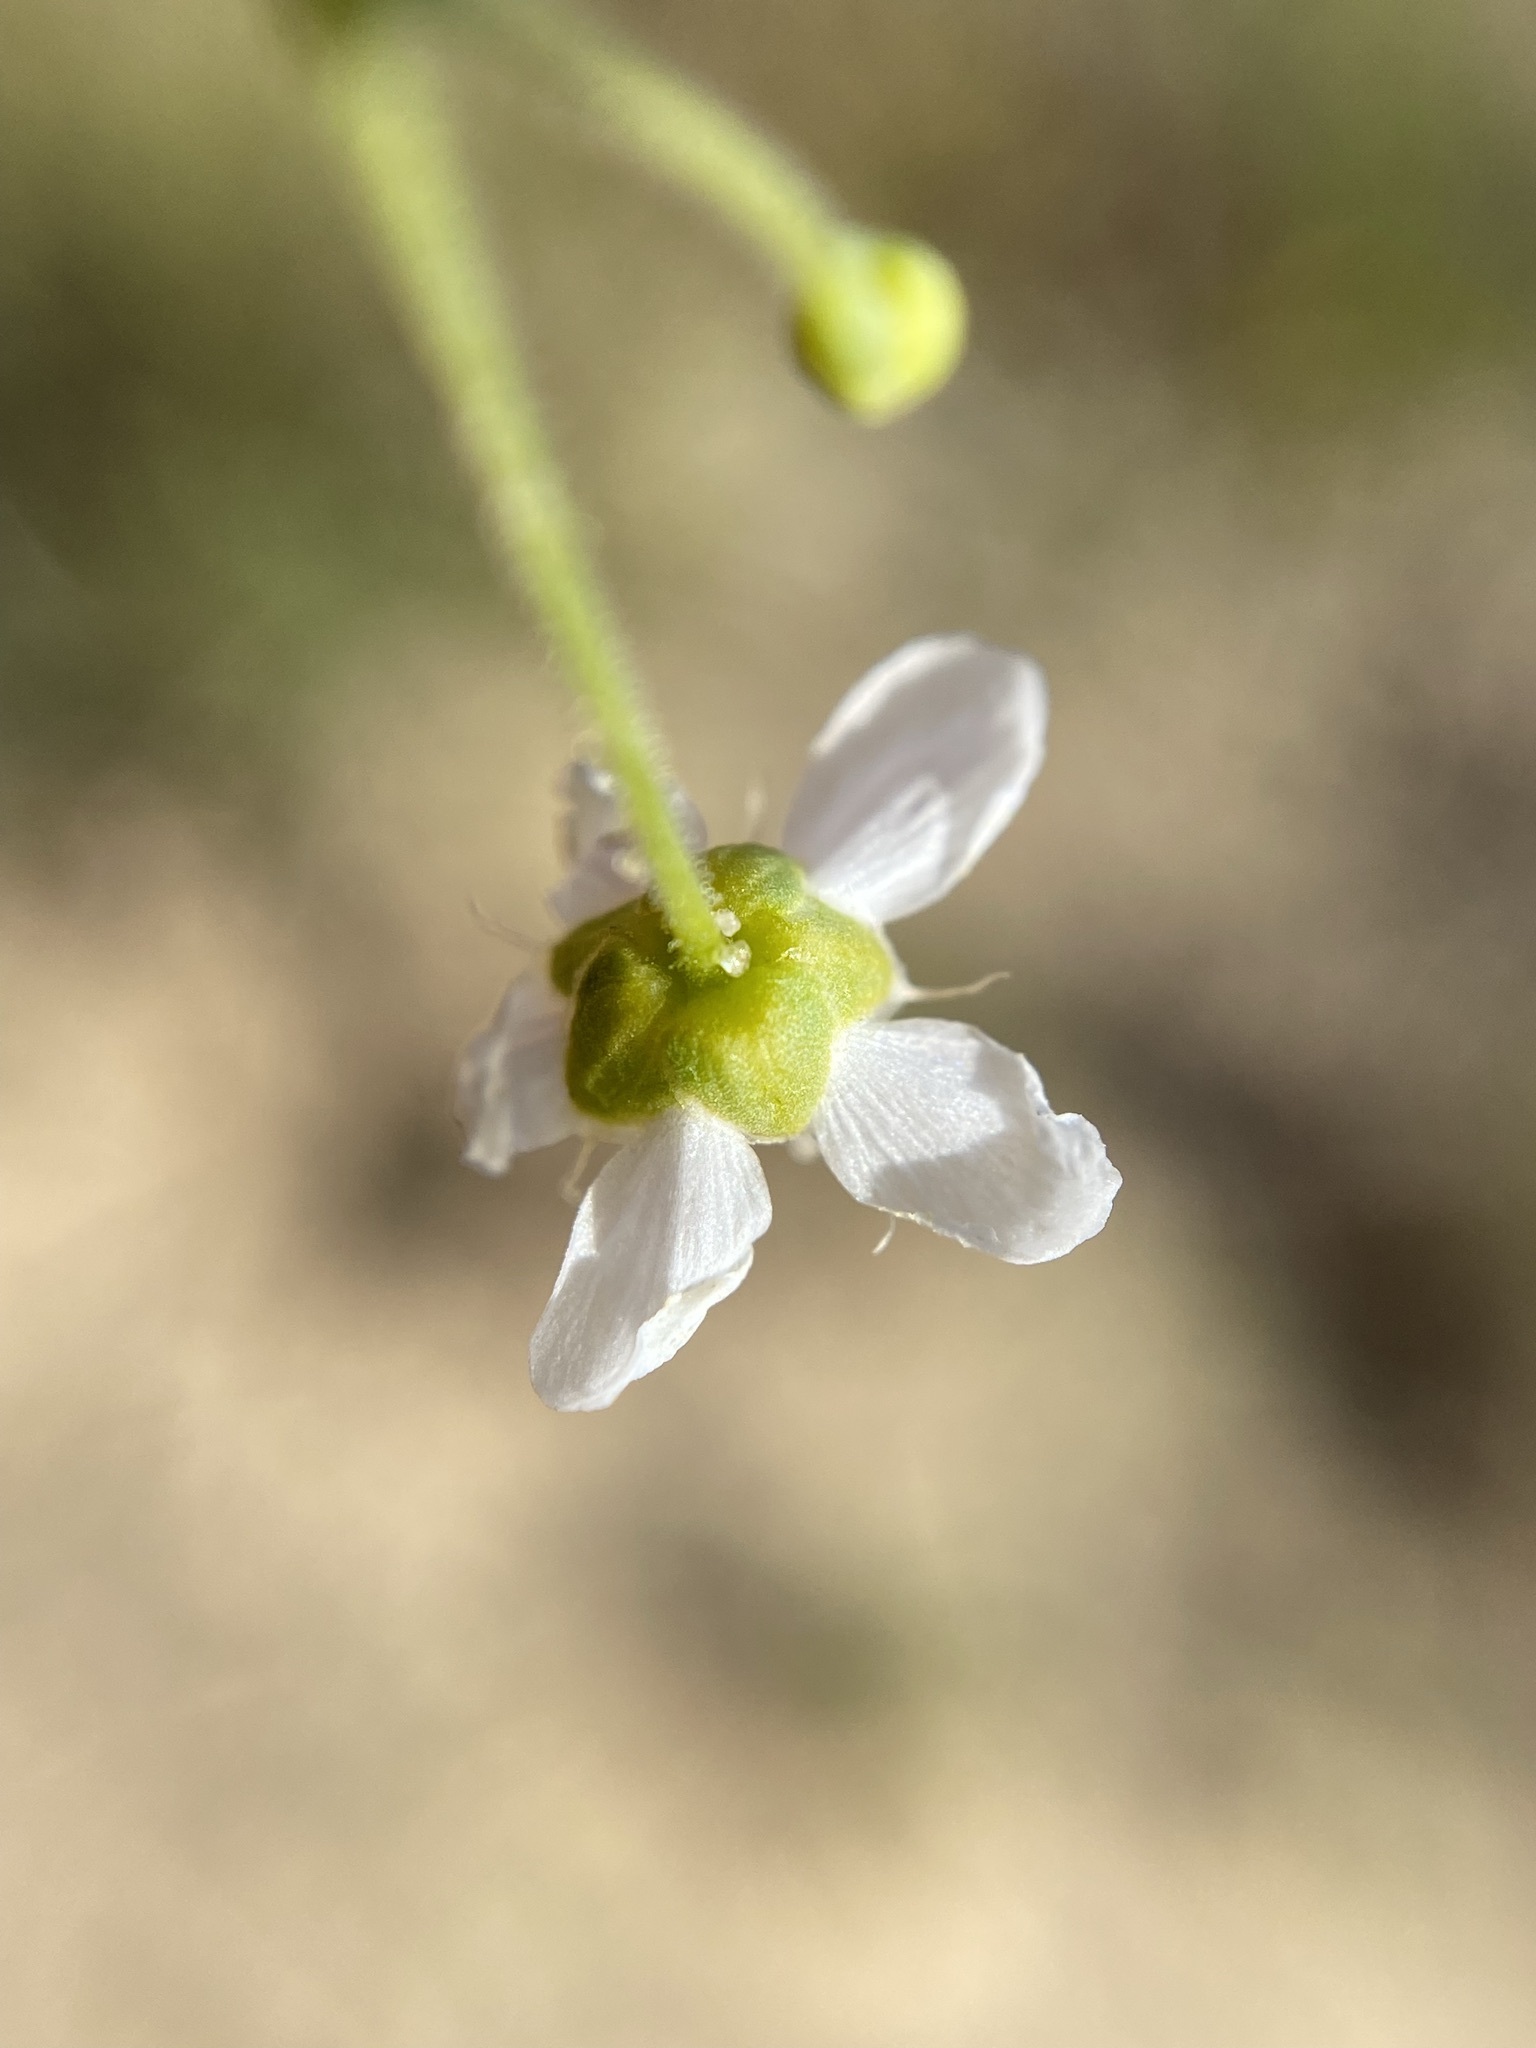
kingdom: Plantae
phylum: Tracheophyta
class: Magnoliopsida
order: Caryophyllales
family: Caryophyllaceae
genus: Geocarpon
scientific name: Geocarpon carolinianum
